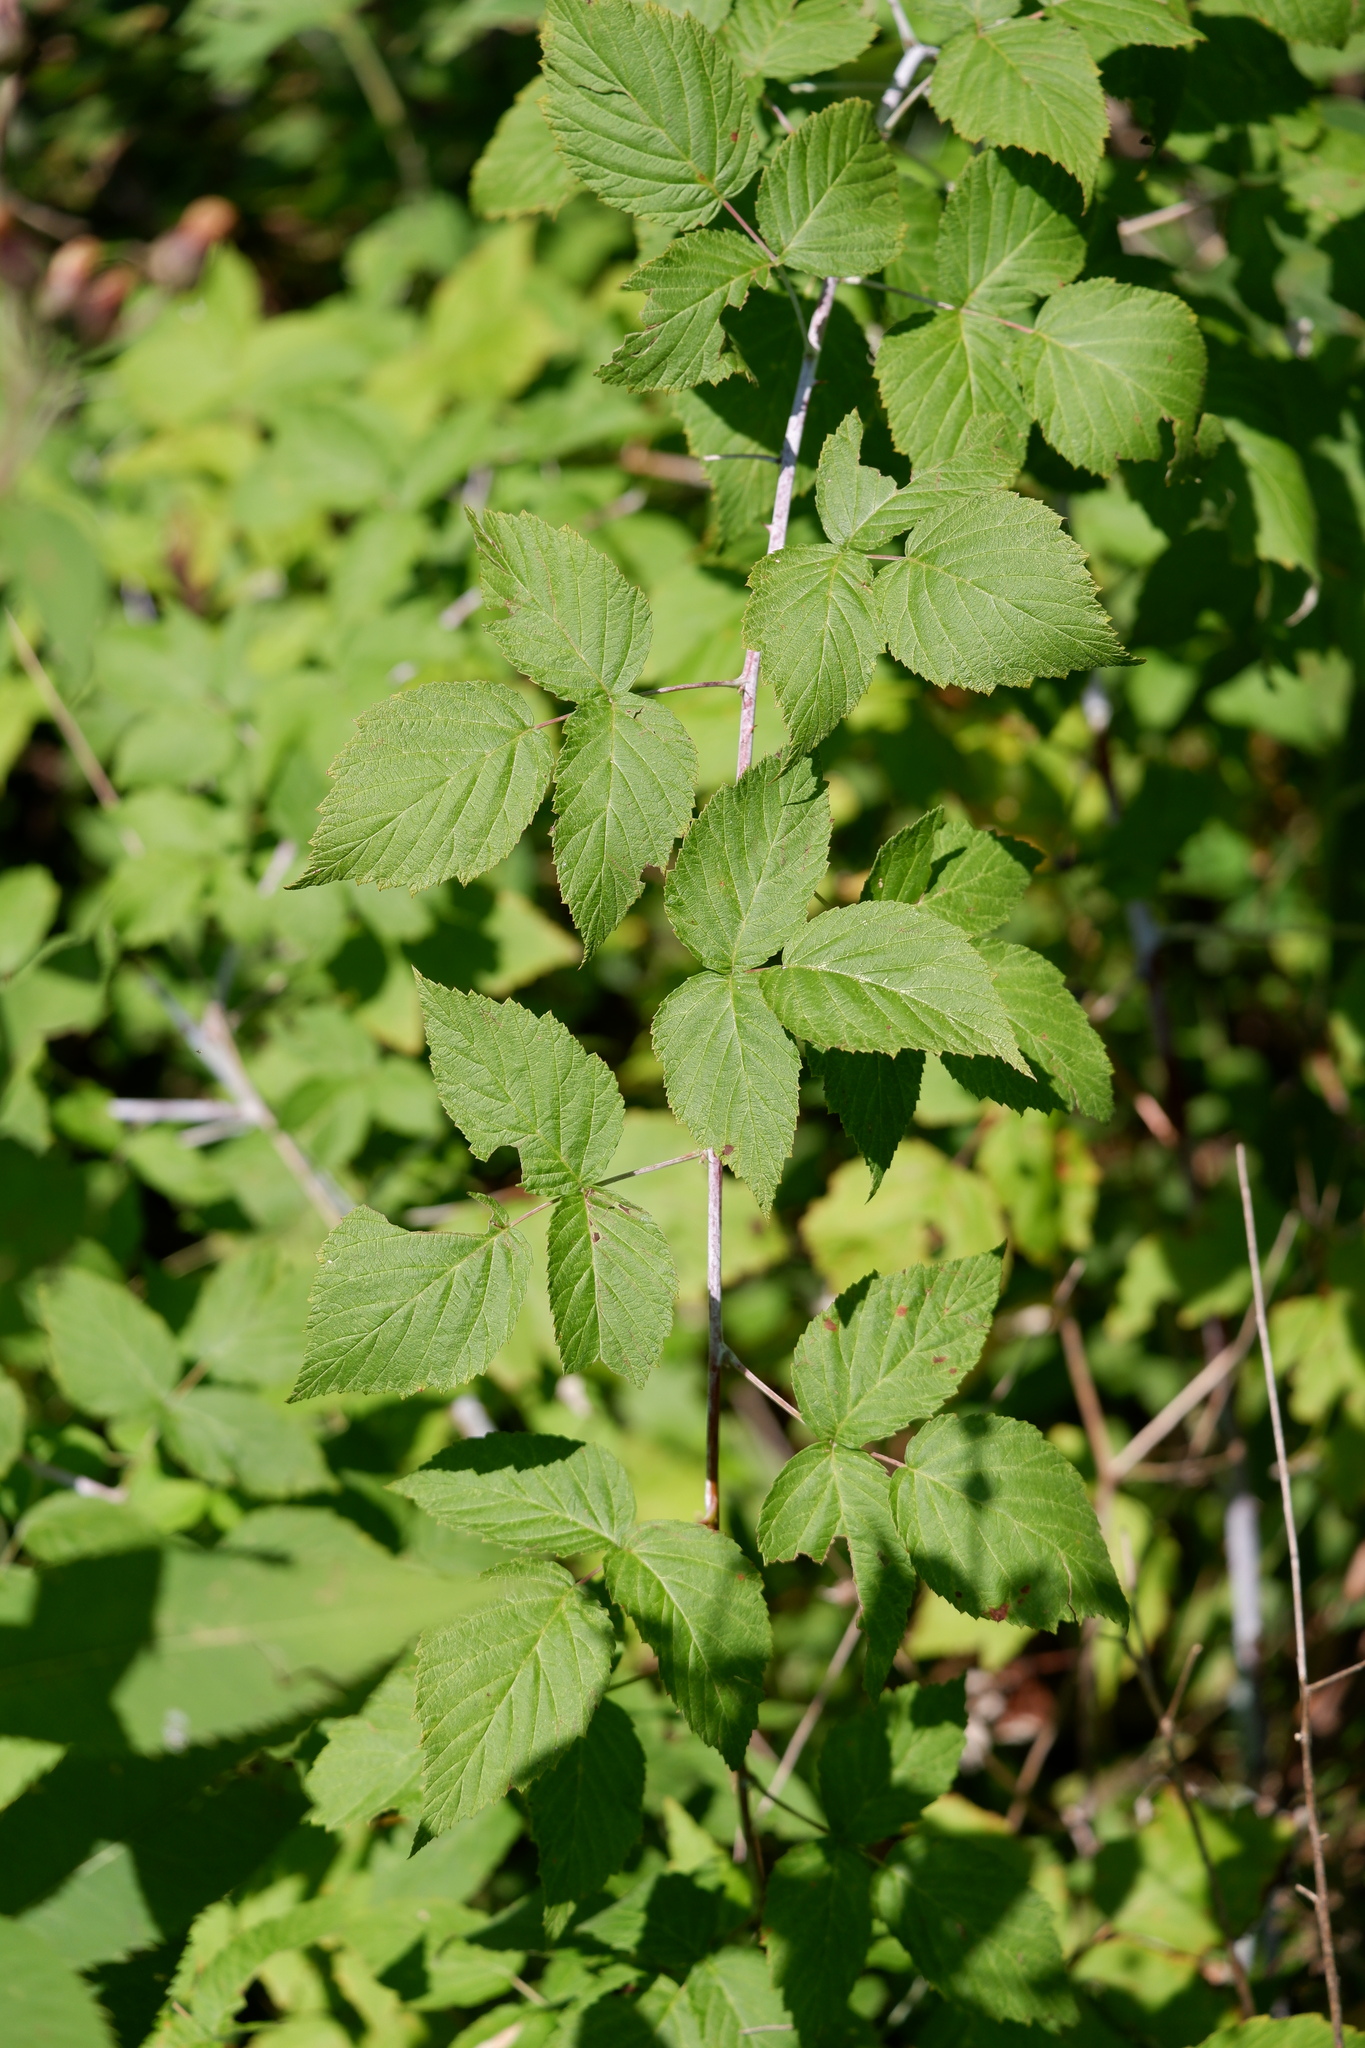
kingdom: Plantae
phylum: Tracheophyta
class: Magnoliopsida
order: Rosales
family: Rosaceae
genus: Rubus
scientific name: Rubus occidentalis
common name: Black raspberry
